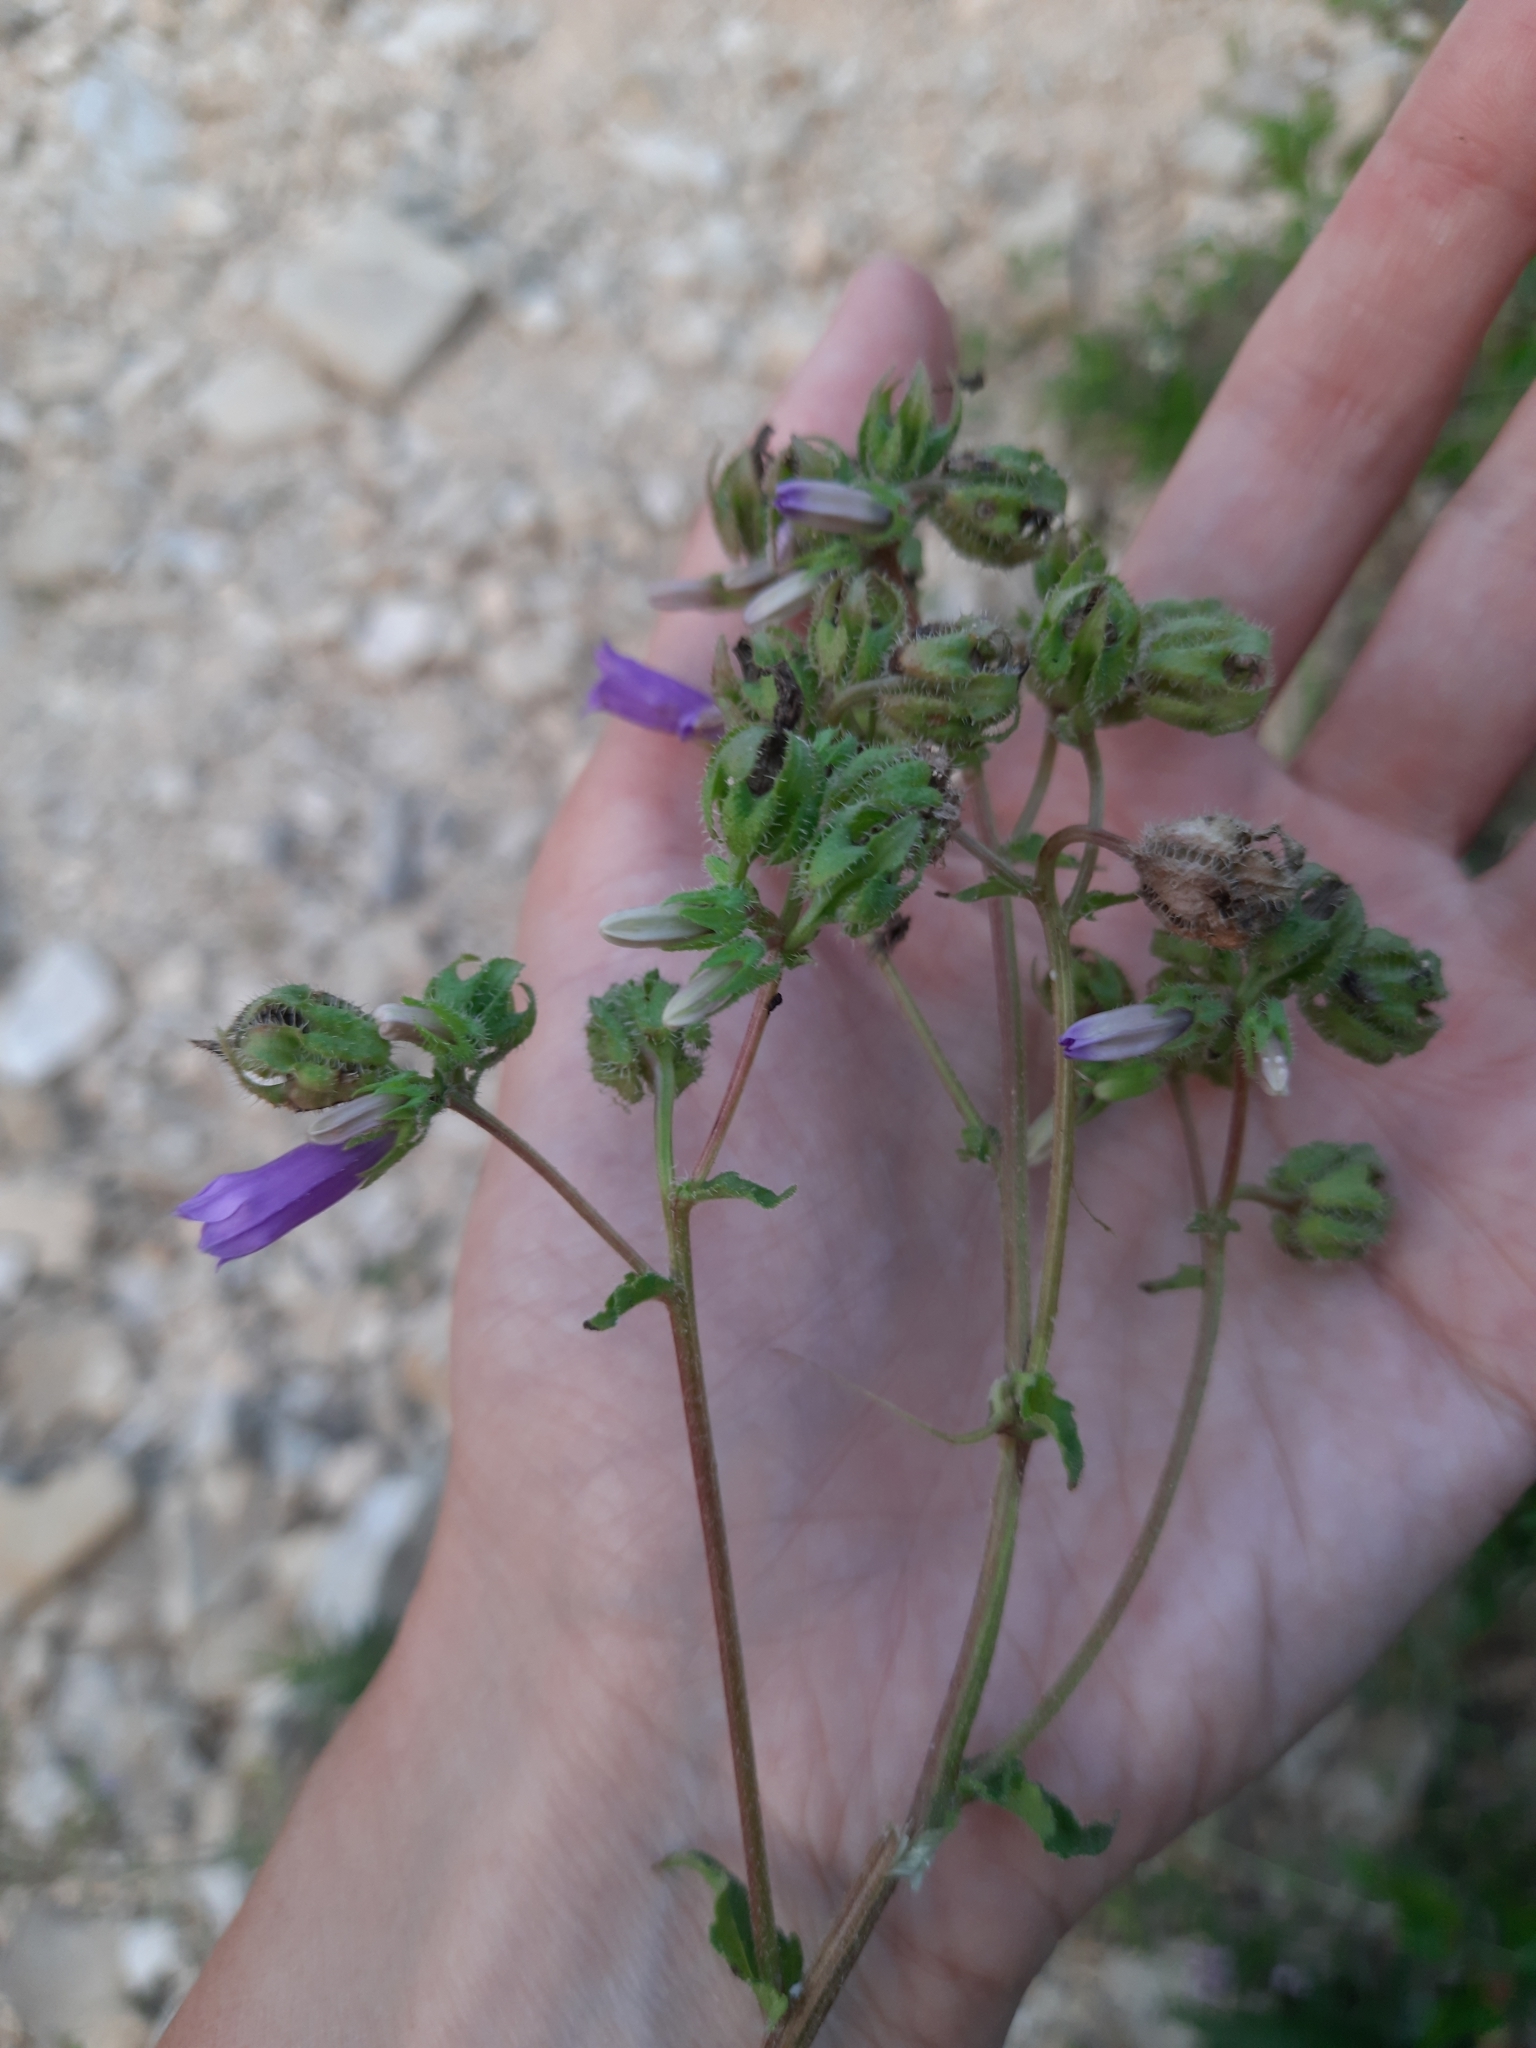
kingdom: Plantae
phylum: Tracheophyta
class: Magnoliopsida
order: Asterales
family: Campanulaceae
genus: Campanula
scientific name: Campanula komarovii
